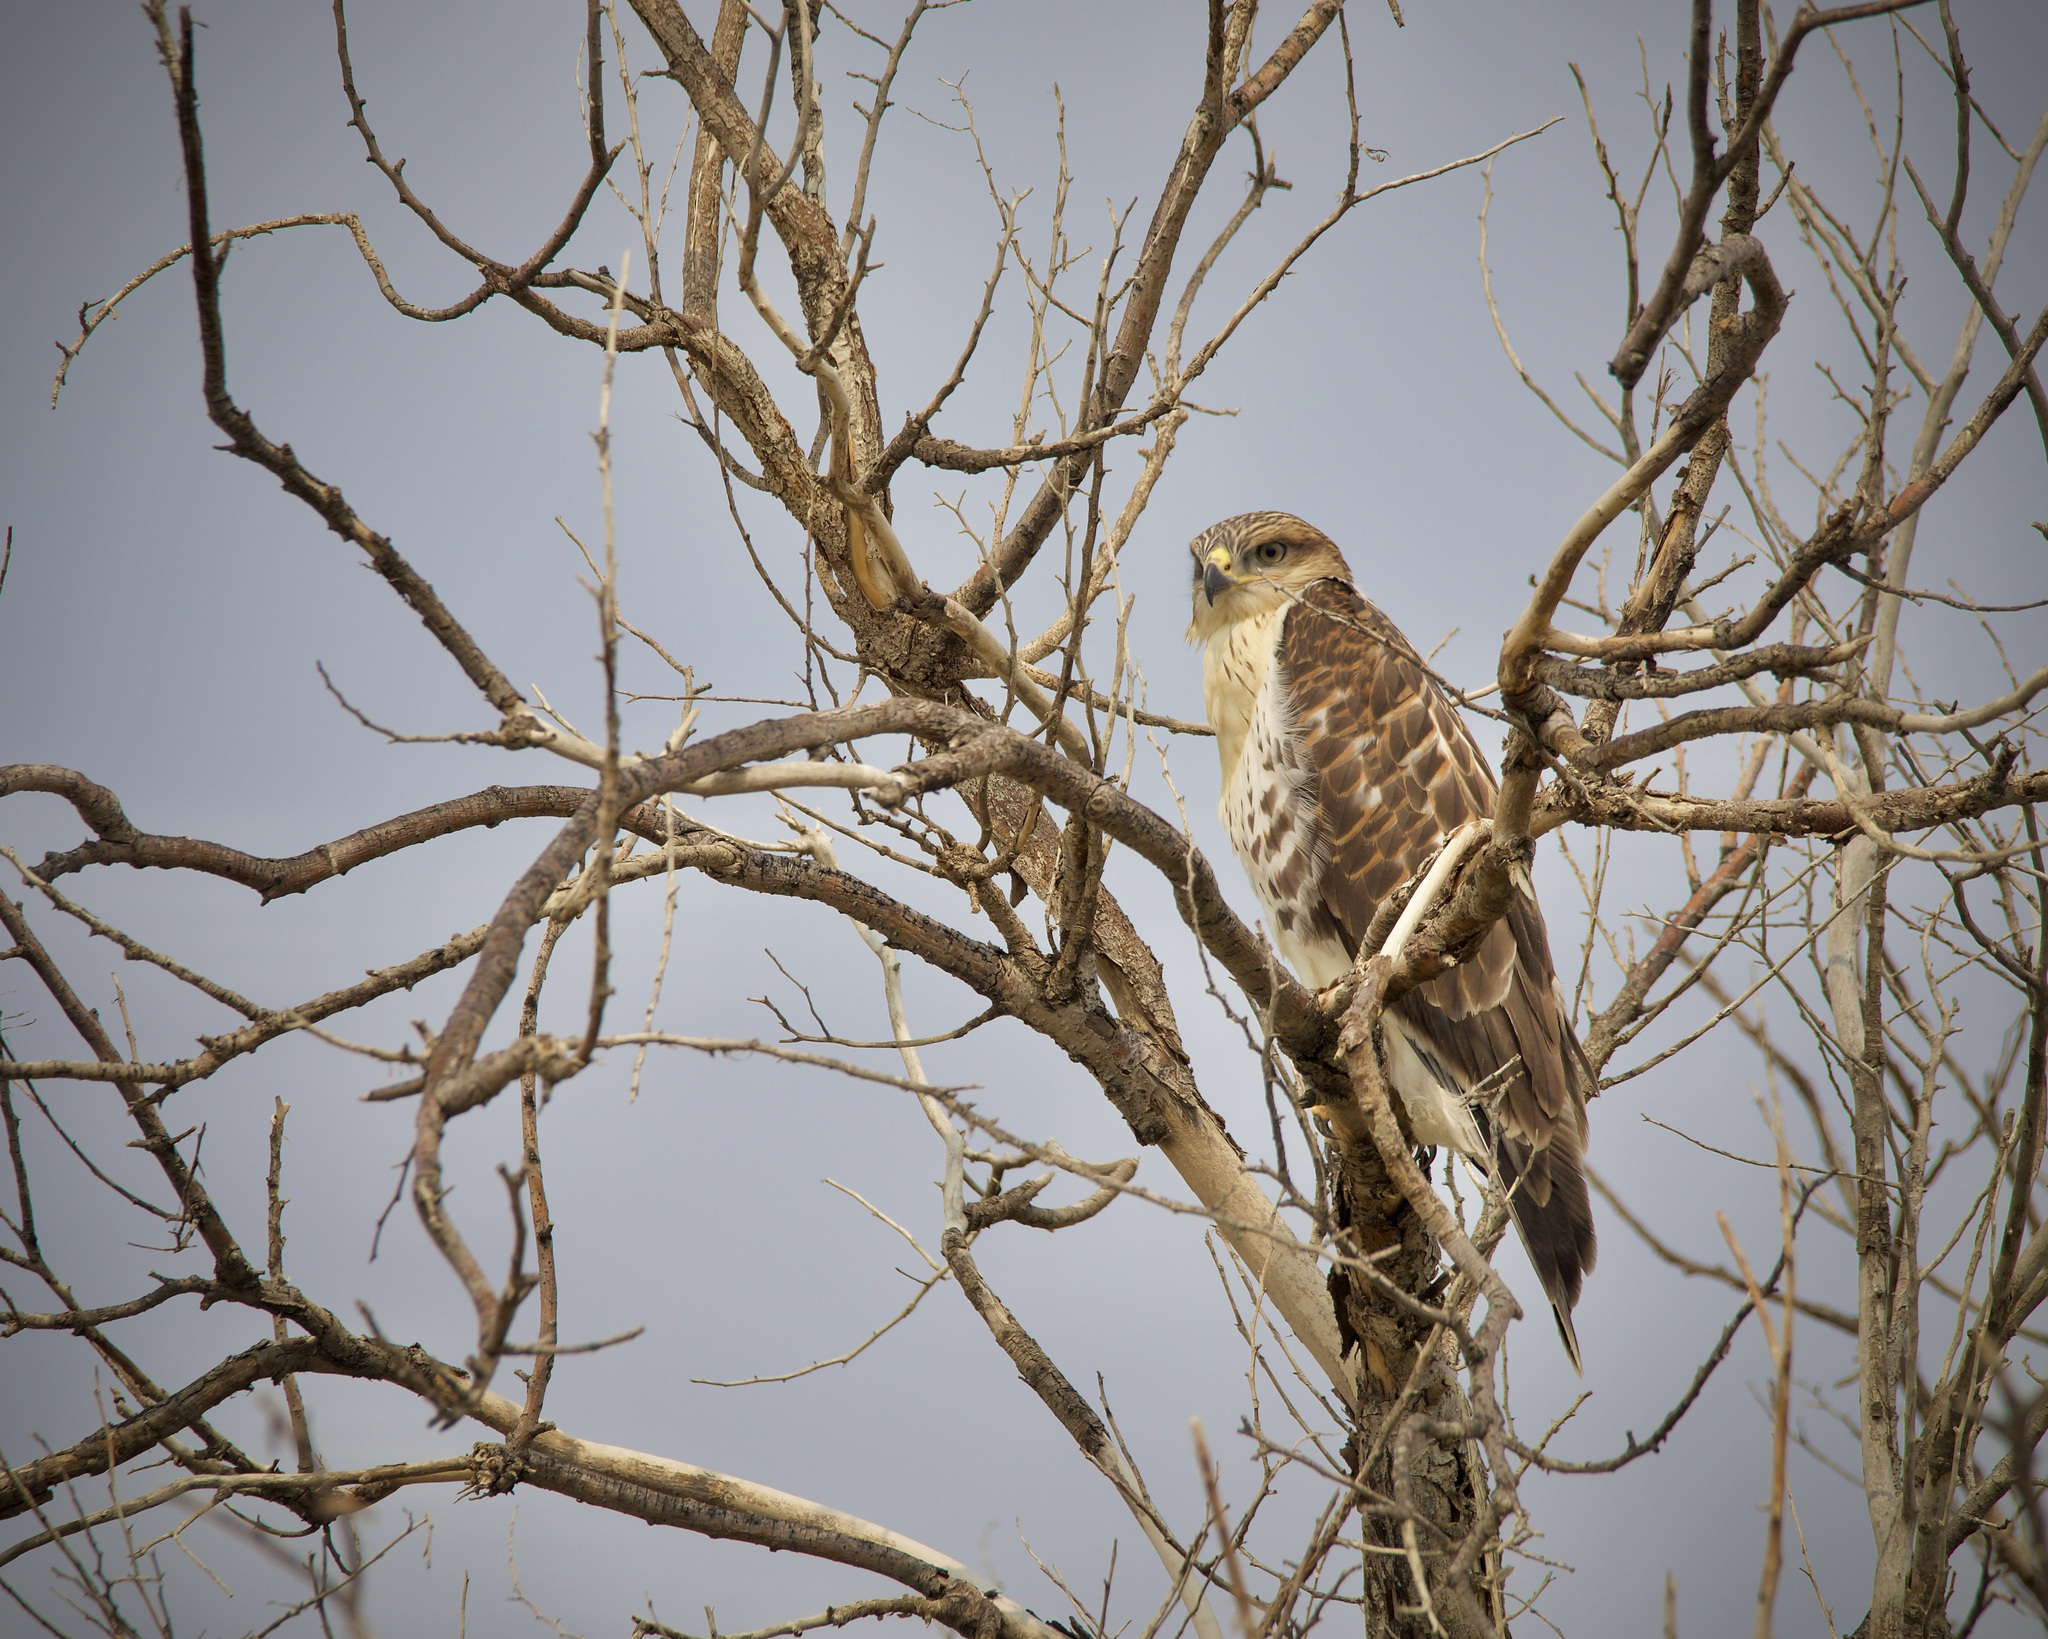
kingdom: Animalia
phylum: Chordata
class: Aves
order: Accipitriformes
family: Accipitridae
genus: Buteo
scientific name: Buteo regalis
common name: Ferruginous hawk
